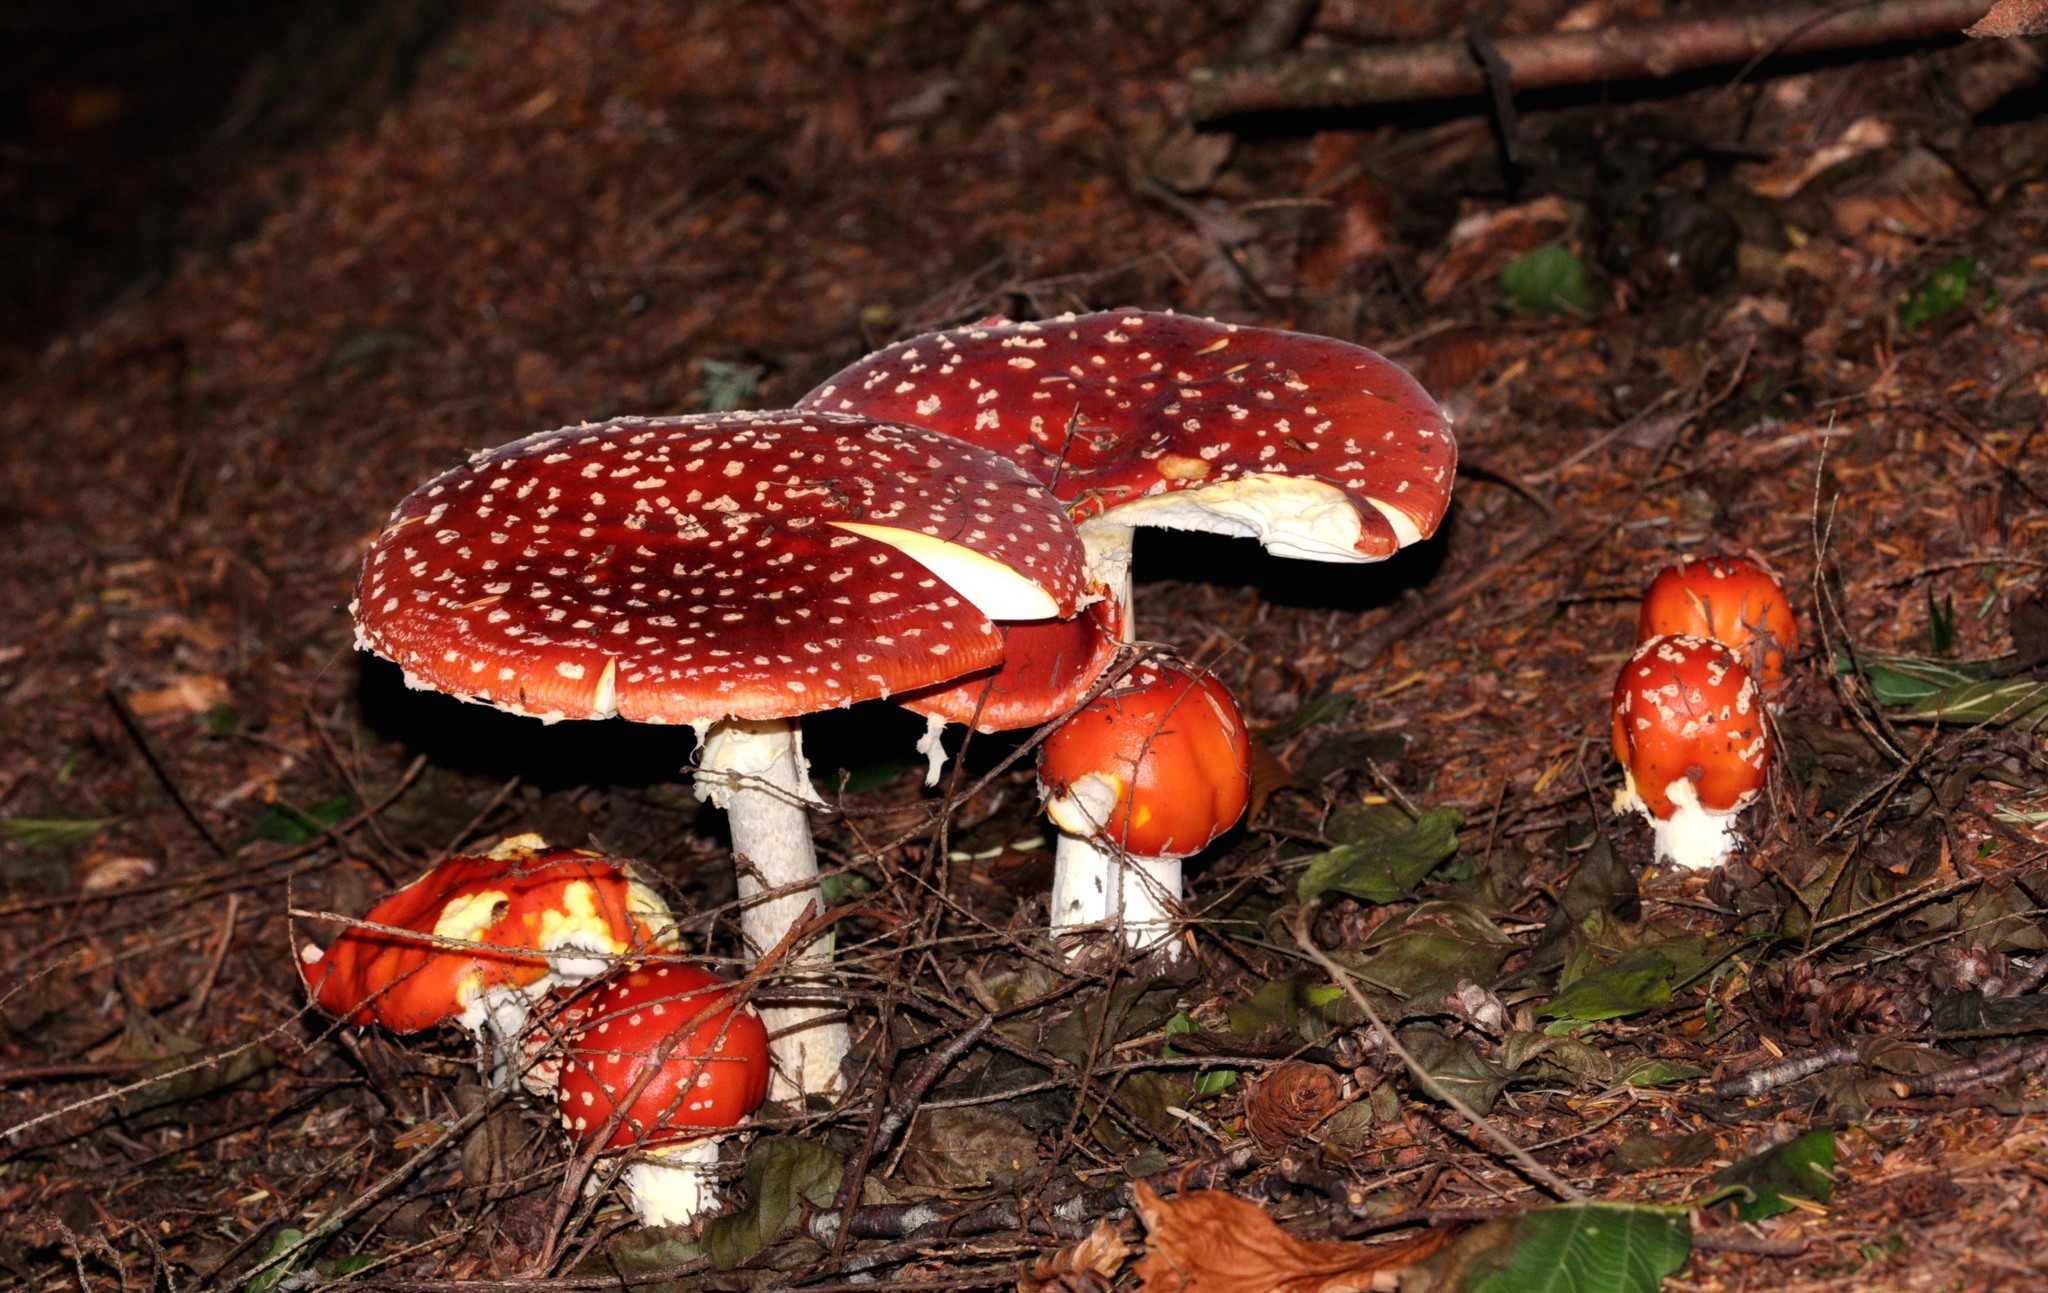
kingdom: Fungi
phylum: Basidiomycota
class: Agaricomycetes
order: Agaricales
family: Amanitaceae
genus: Amanita
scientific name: Amanita muscaria
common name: Fly agaric
